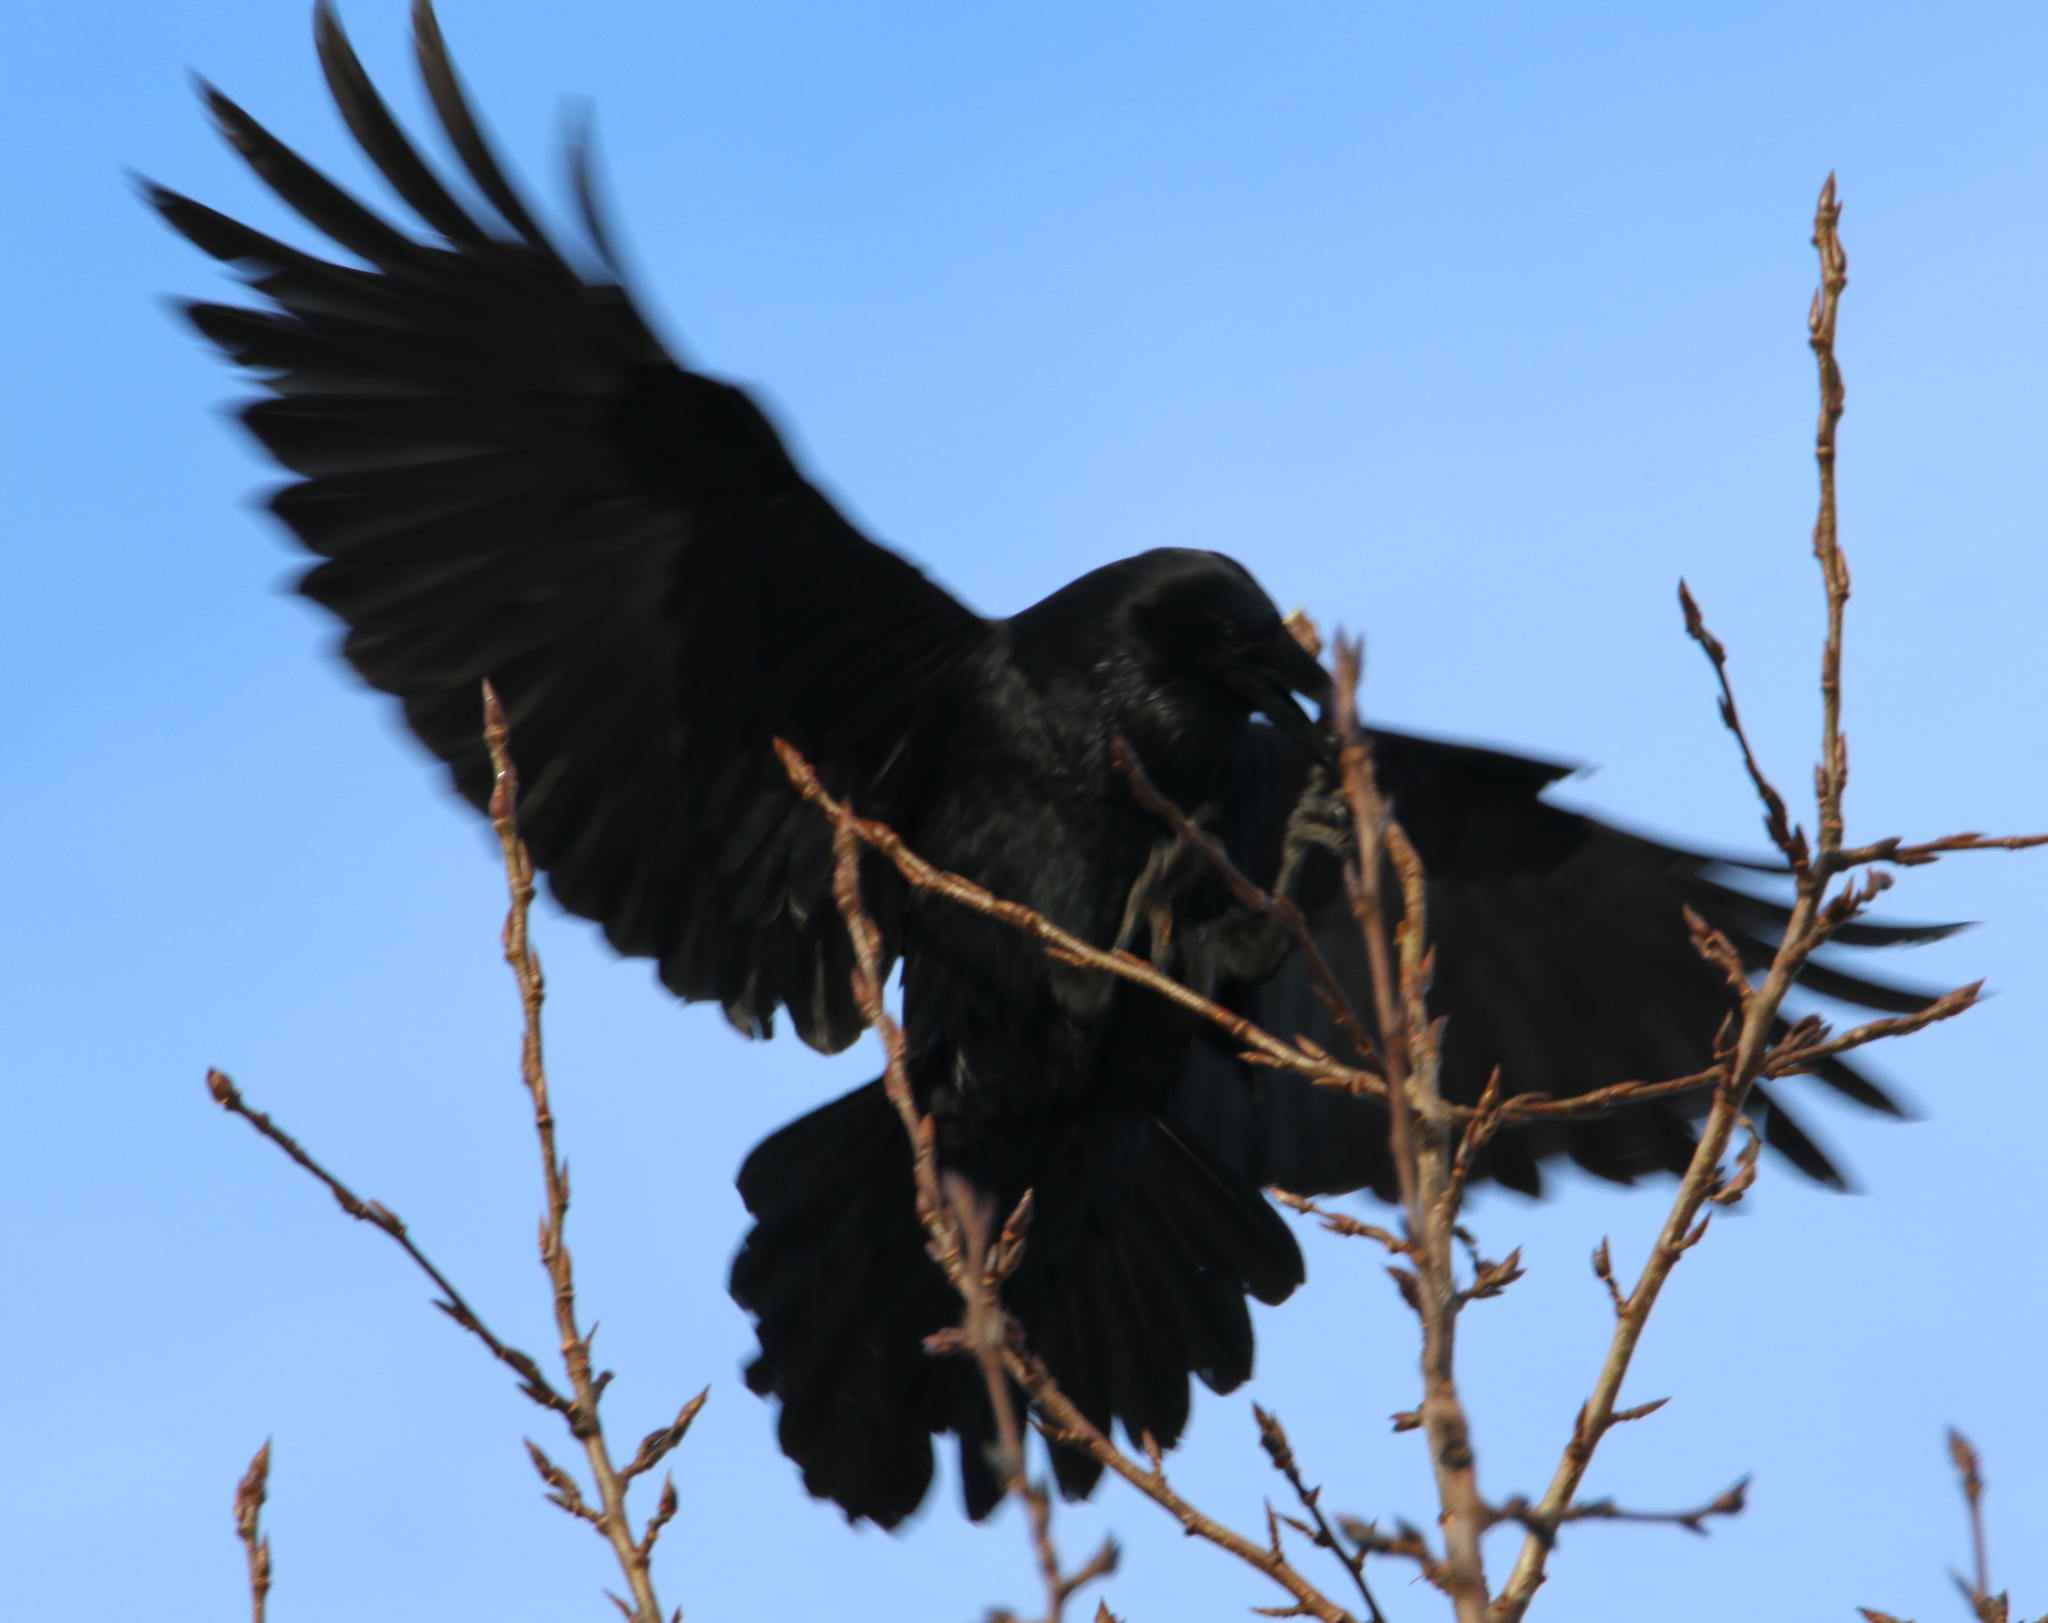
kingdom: Animalia
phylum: Chordata
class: Aves
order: Passeriformes
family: Corvidae
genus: Corvus
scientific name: Corvus corax
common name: Common raven
